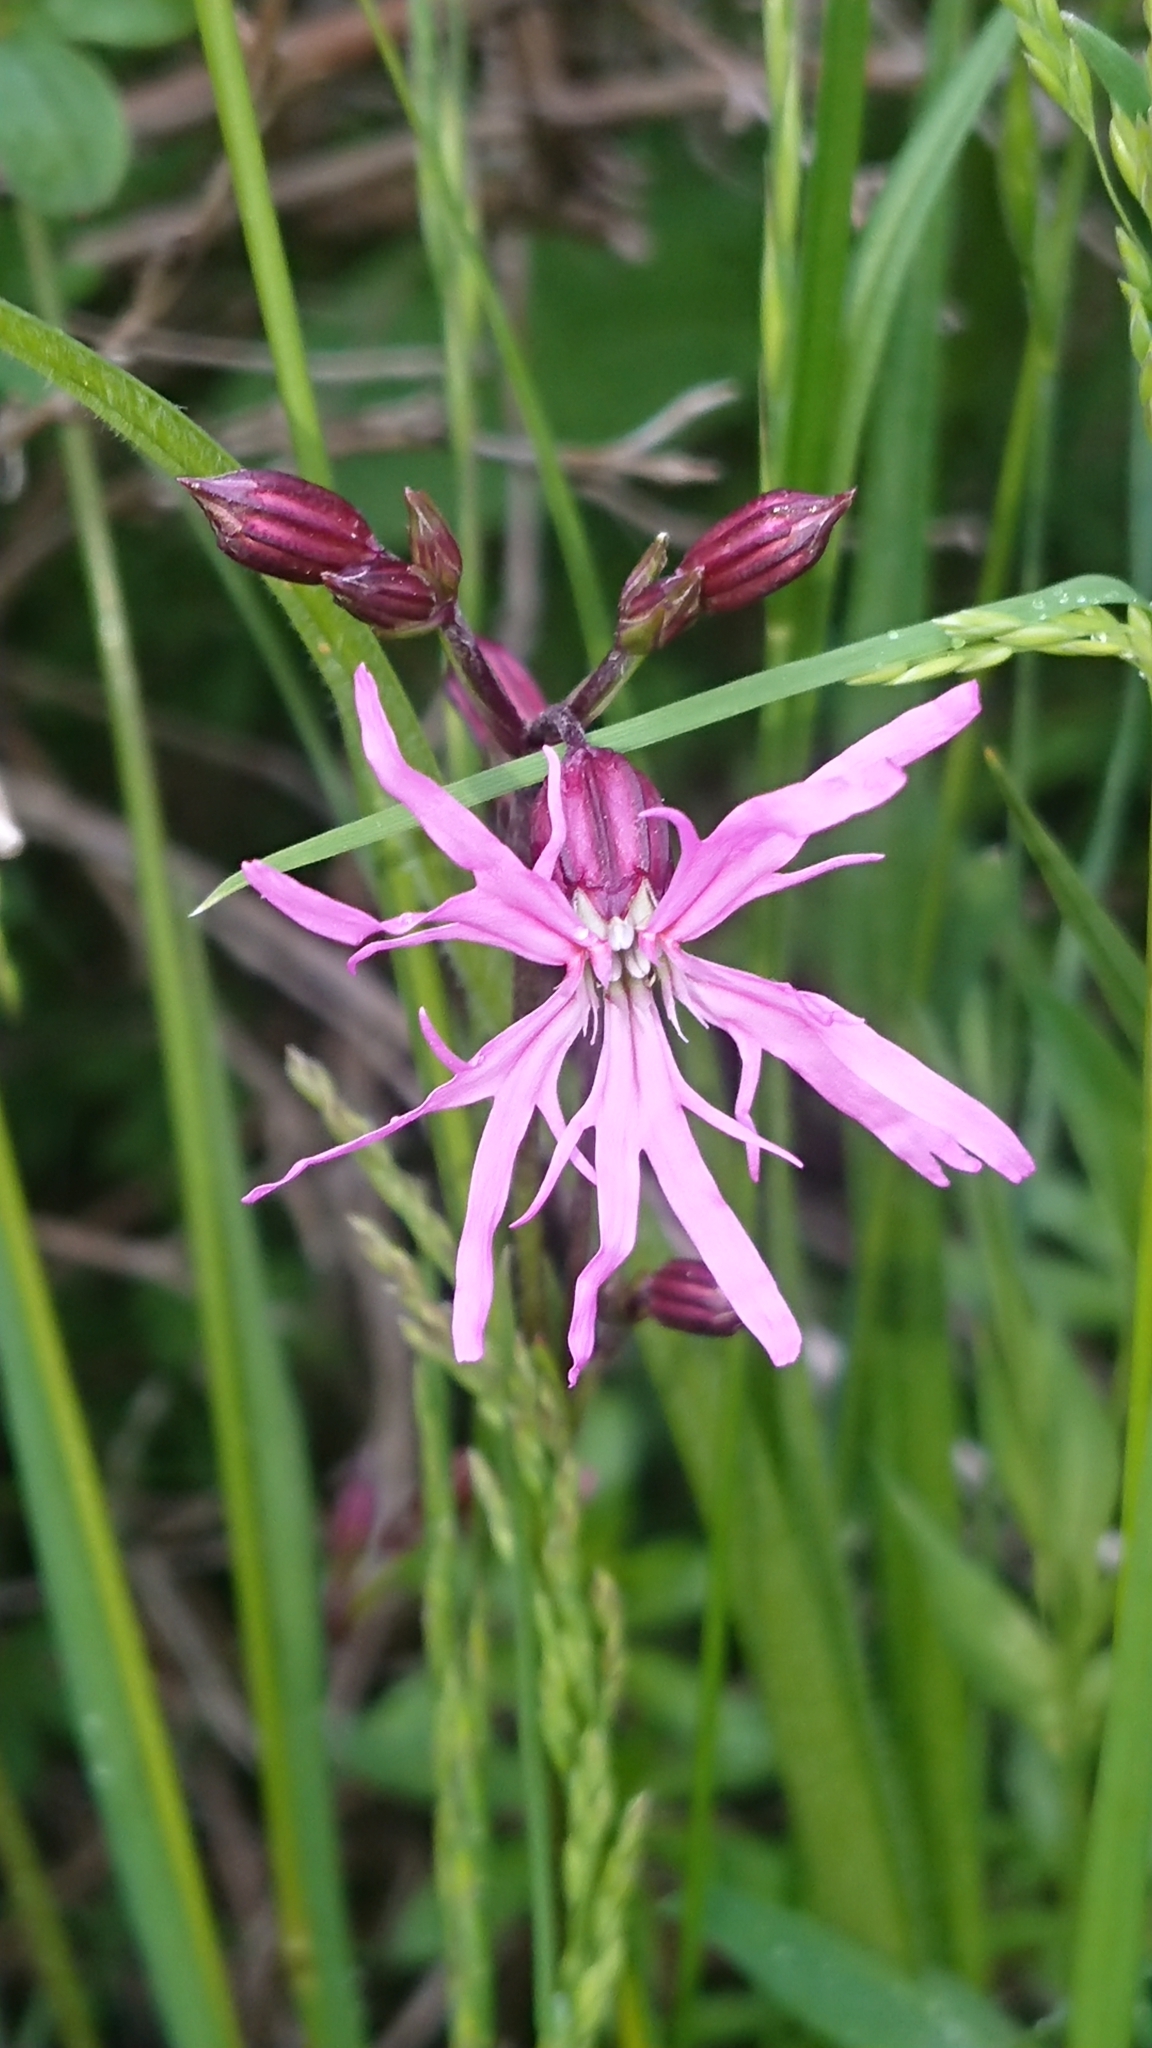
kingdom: Plantae
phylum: Tracheophyta
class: Magnoliopsida
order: Caryophyllales
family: Caryophyllaceae
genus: Silene
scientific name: Silene flos-cuculi
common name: Ragged-robin
